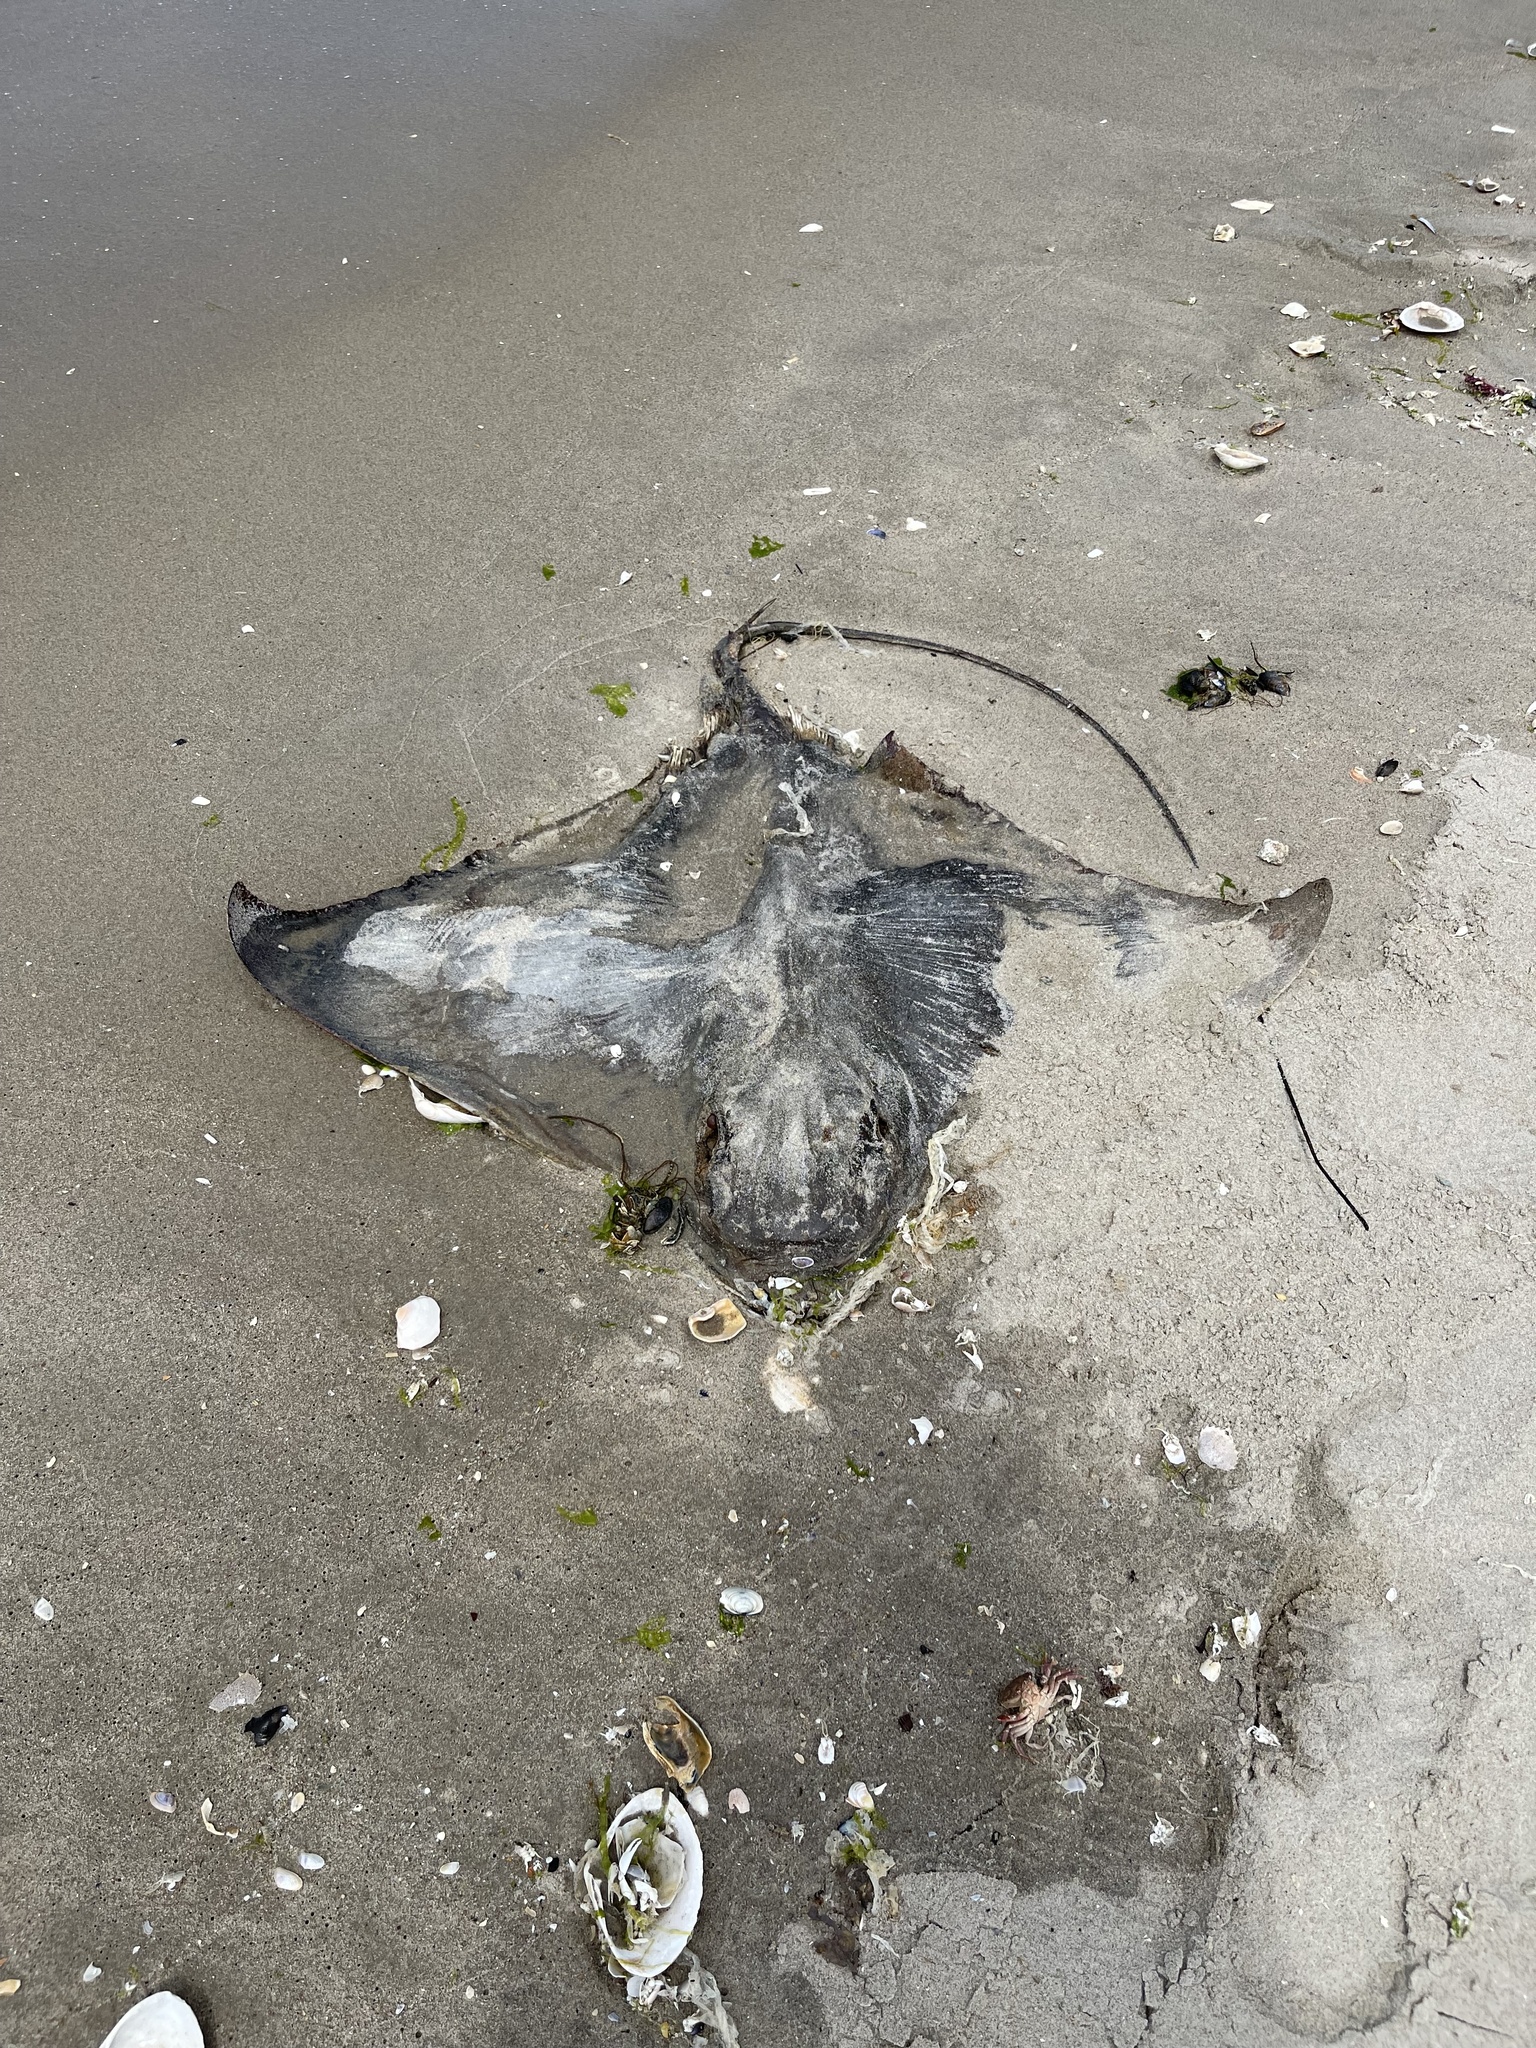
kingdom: Animalia
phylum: Chordata
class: Elasmobranchii
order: Myliobatiformes
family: Myliobatidae
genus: Myliobatis
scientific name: Myliobatis freminvillei
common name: Bullnose ray
